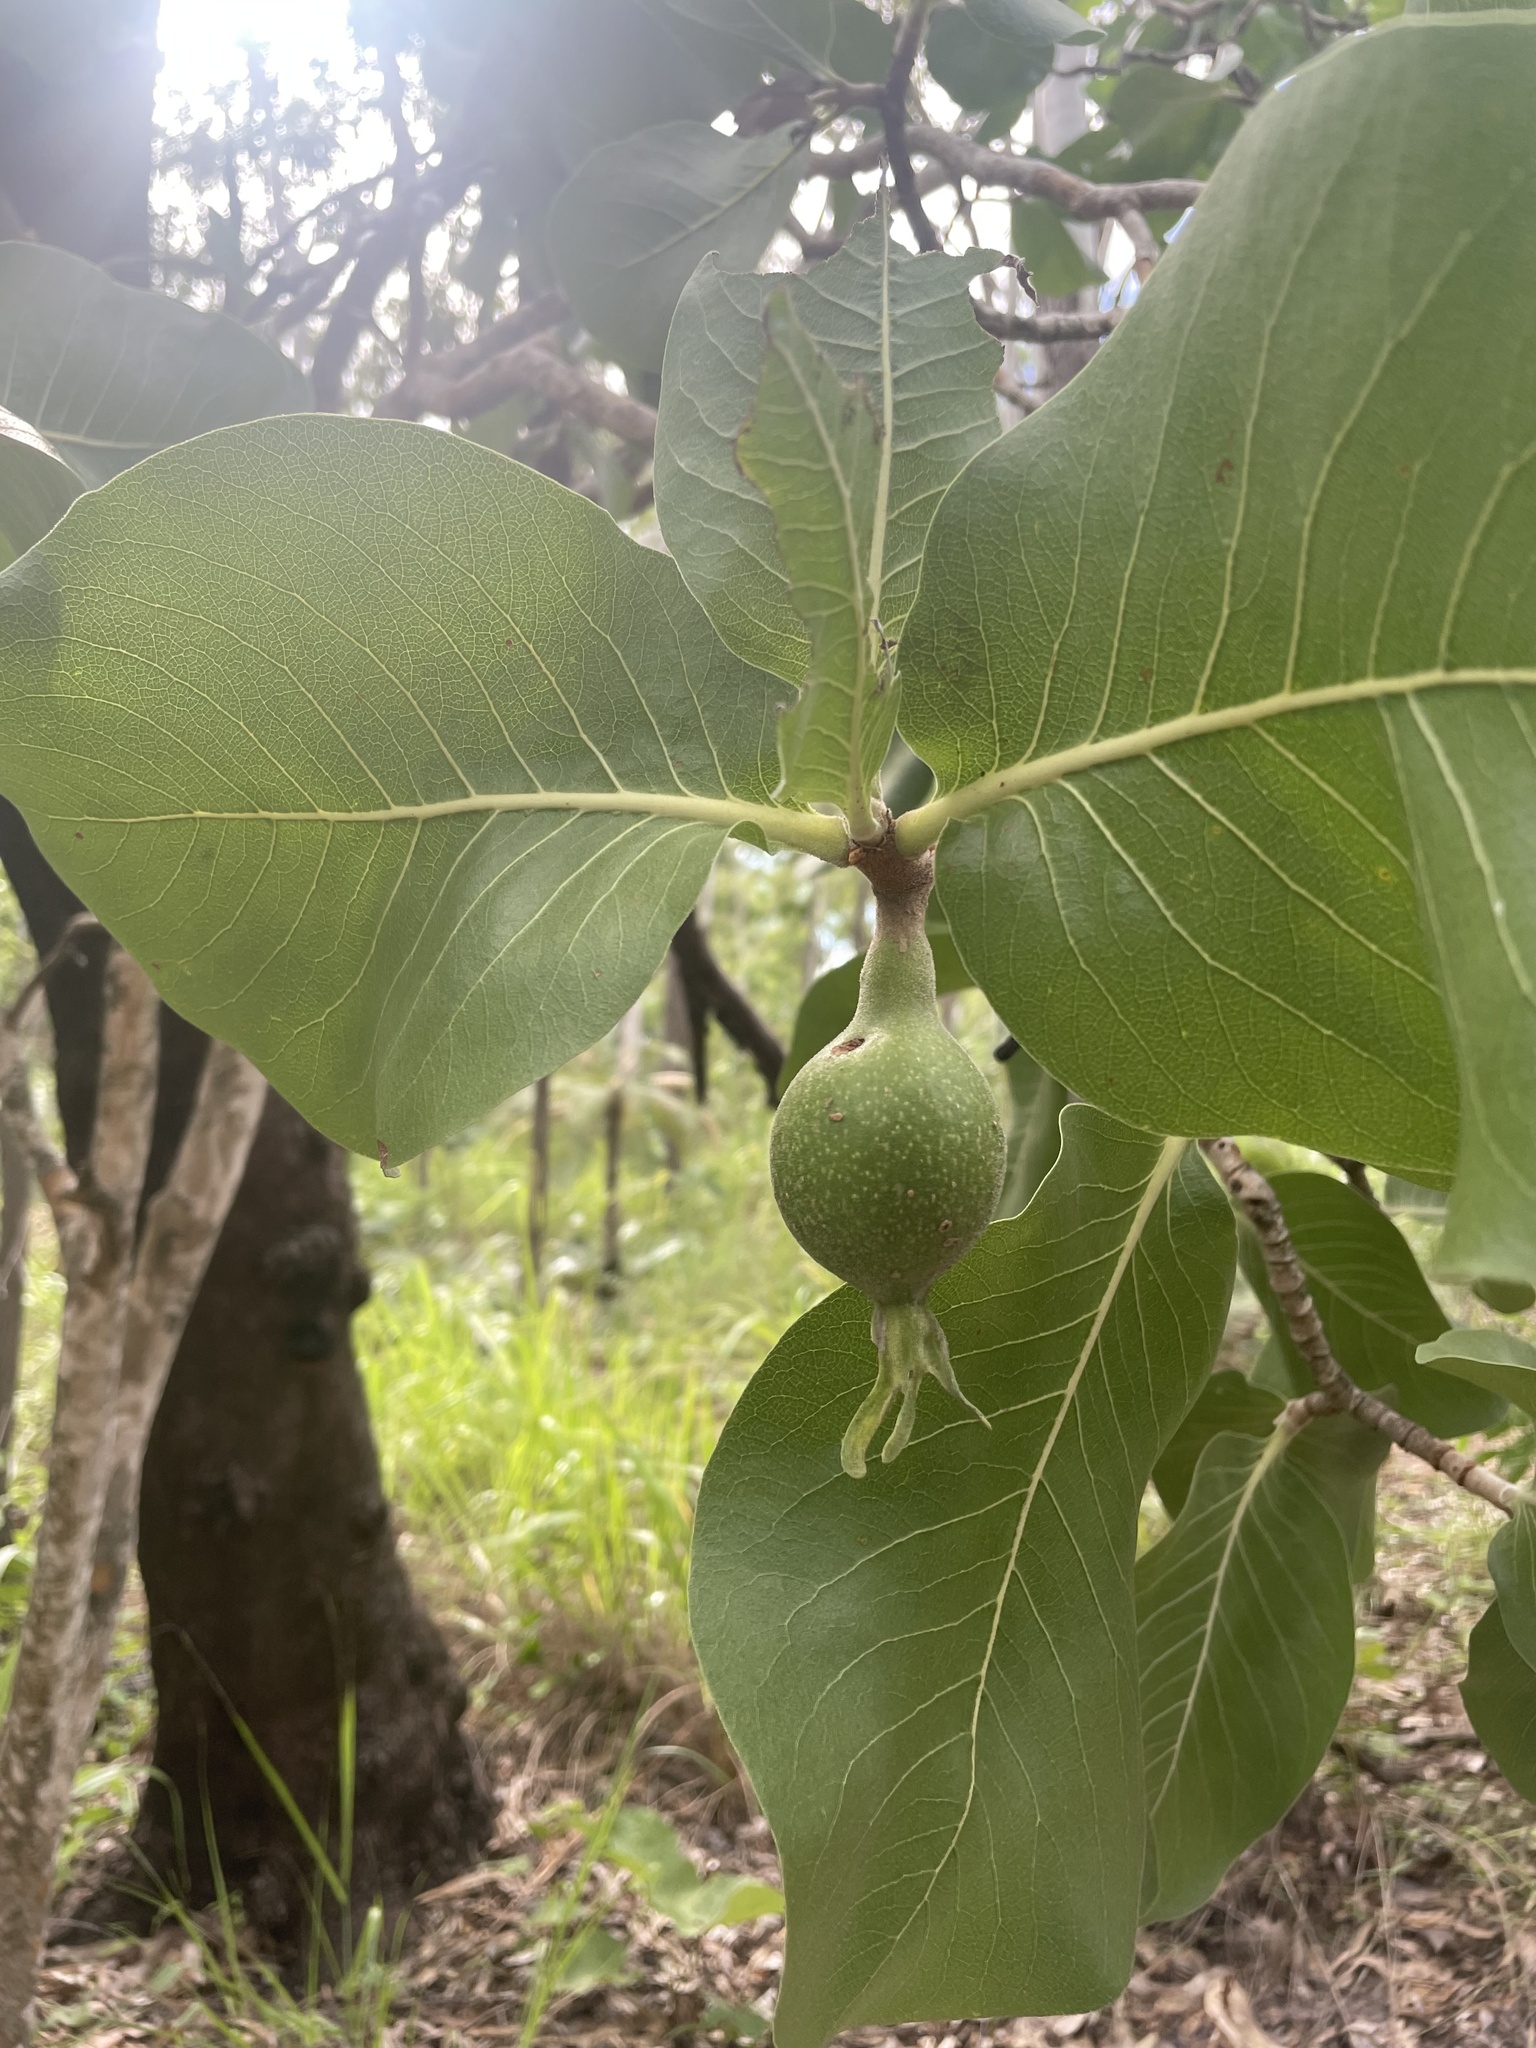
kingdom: Plantae
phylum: Tracheophyta
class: Magnoliopsida
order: Gentianales
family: Rubiaceae
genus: Gardenia
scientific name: Gardenia megasperma
